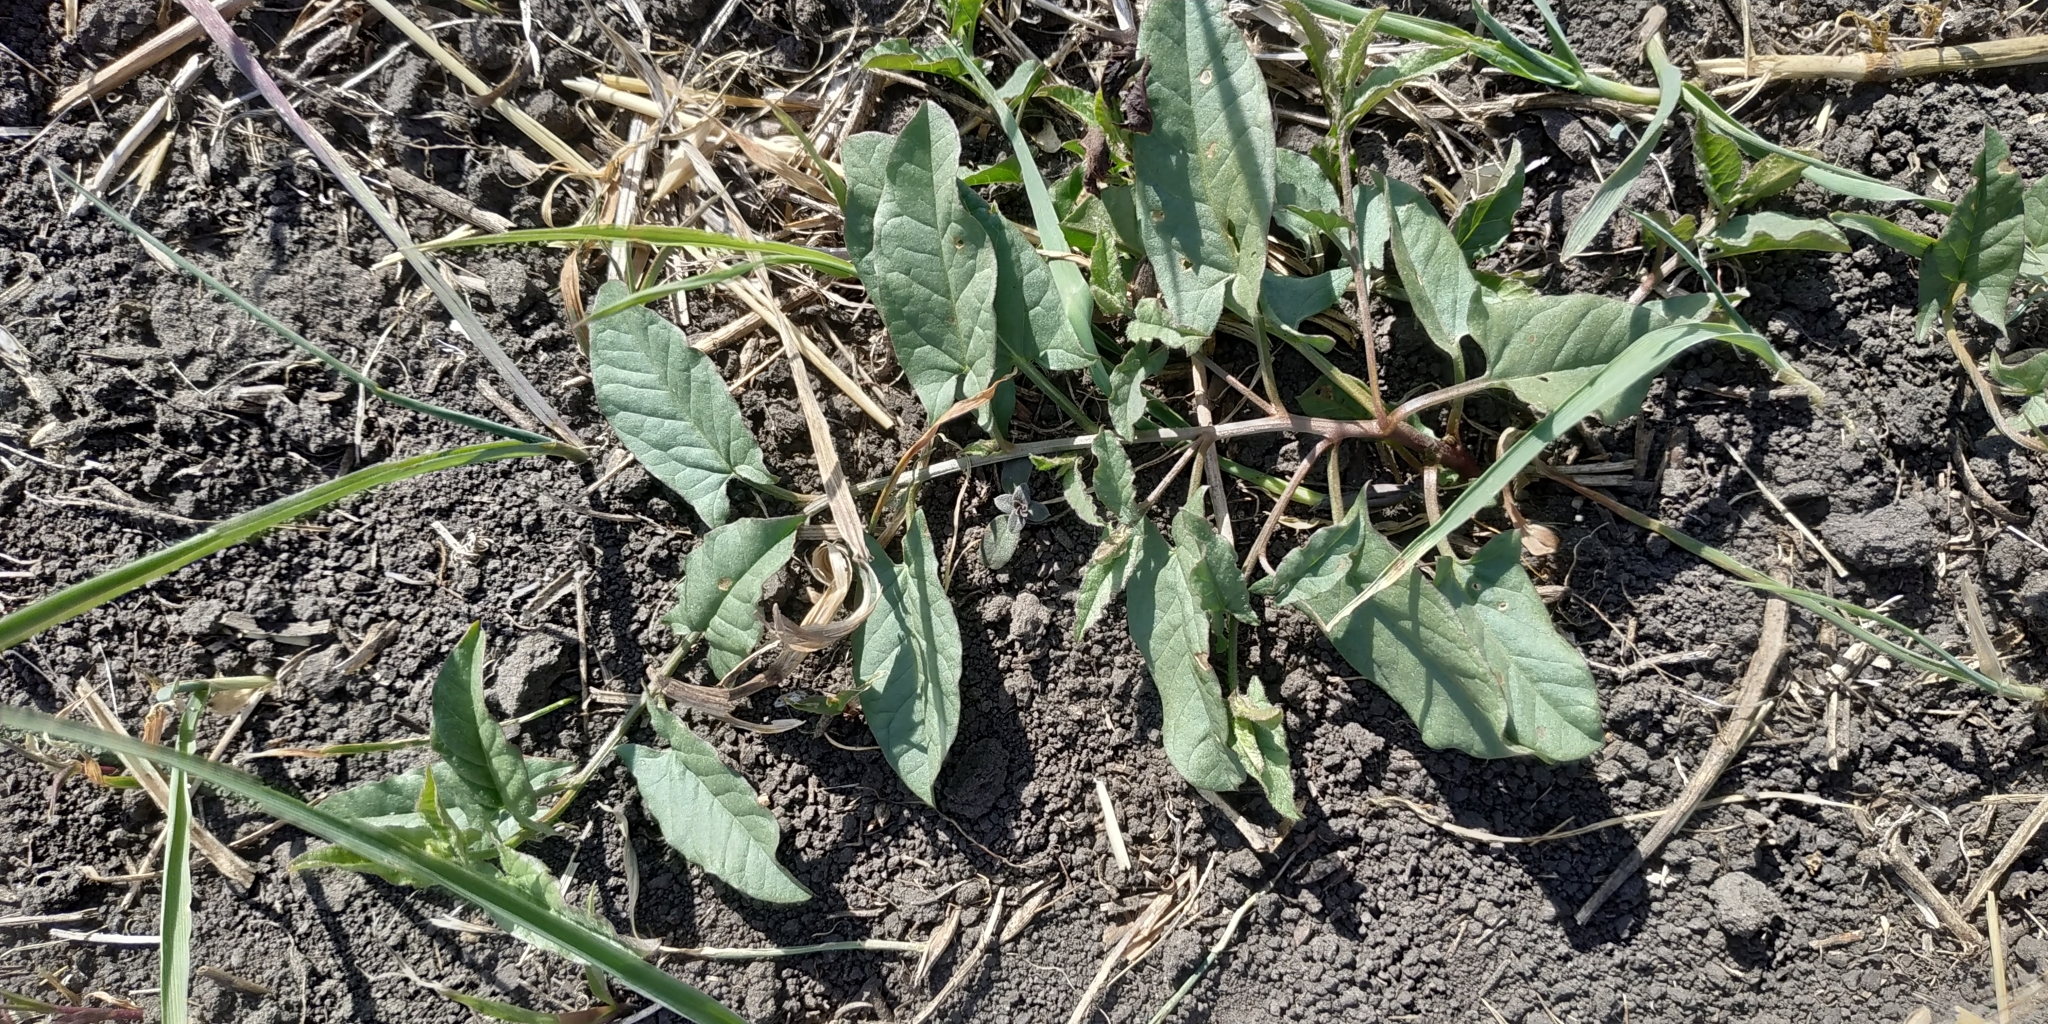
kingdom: Plantae
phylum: Tracheophyta
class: Magnoliopsida
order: Solanales
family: Convolvulaceae
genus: Convolvulus
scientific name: Convolvulus arvensis
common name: Field bindweed
